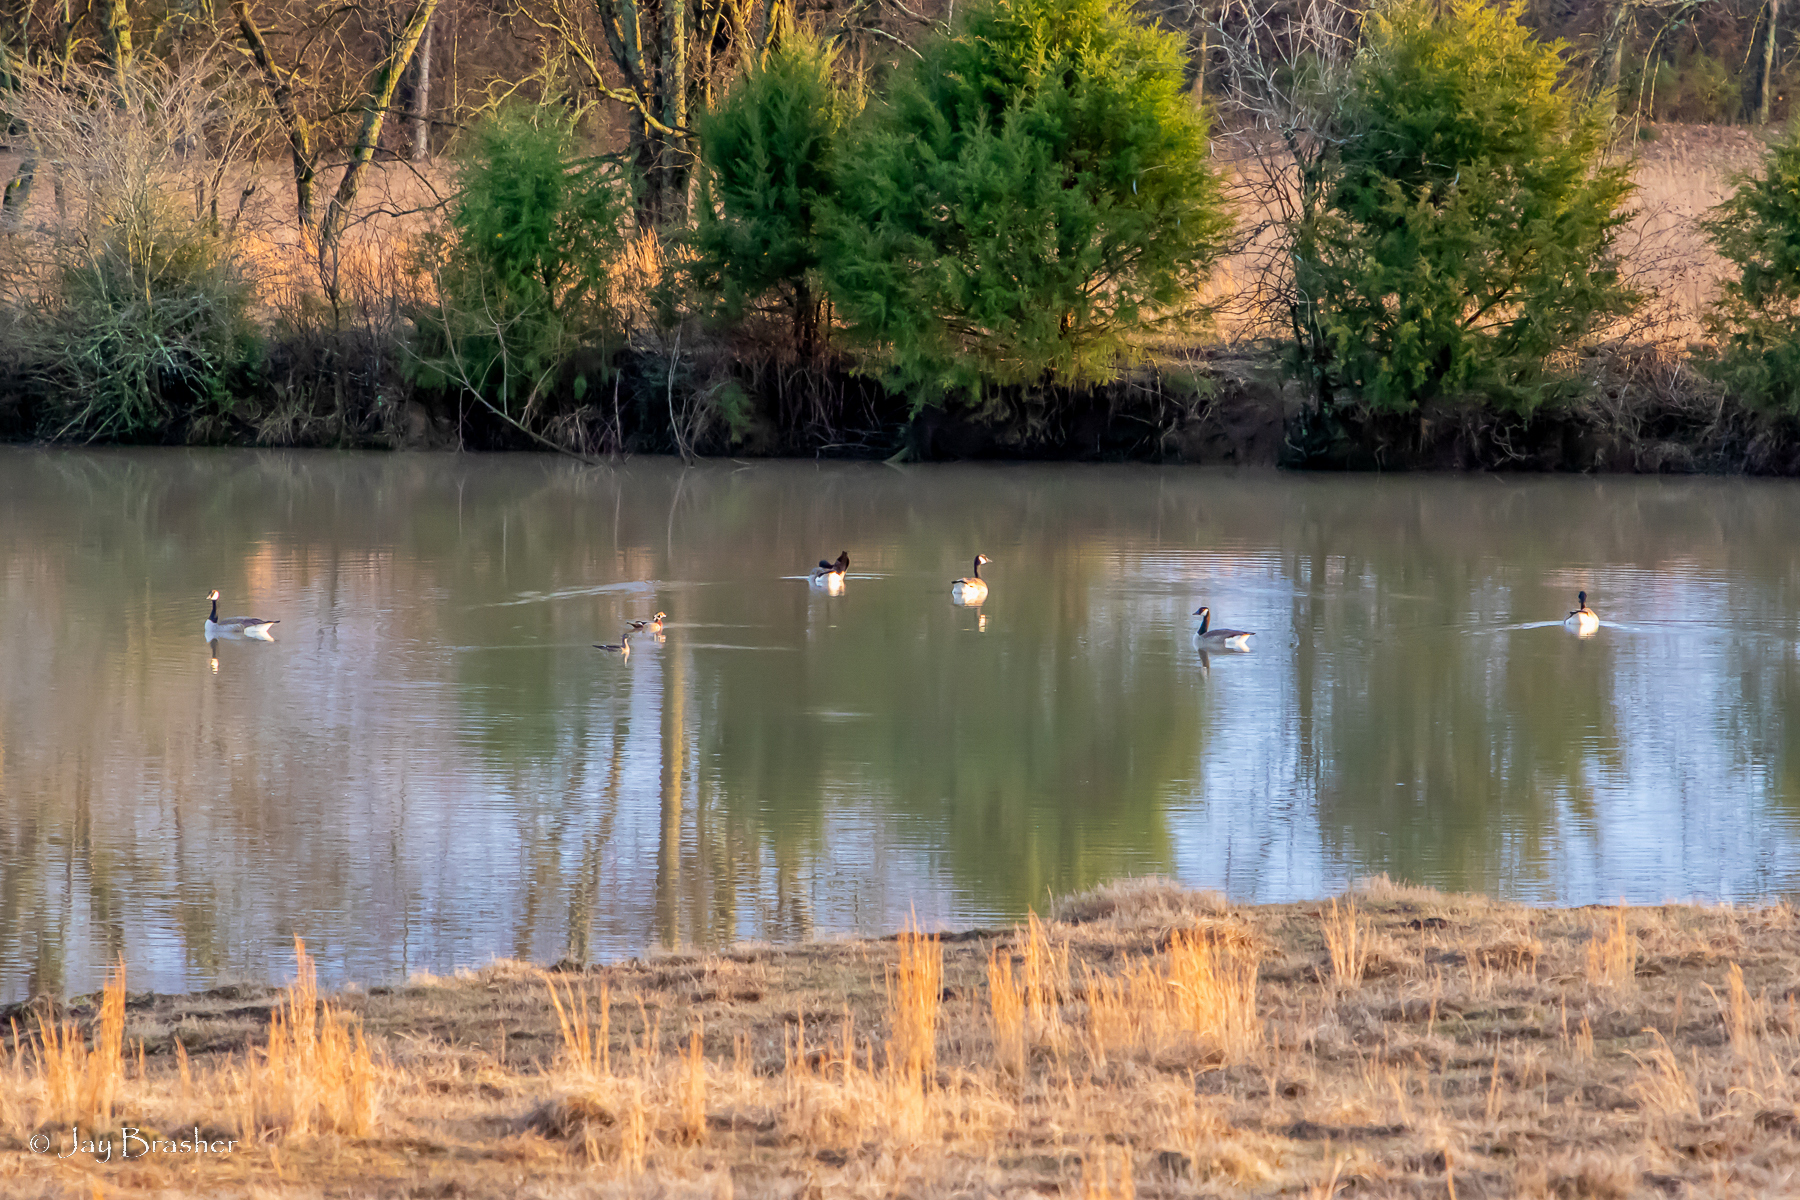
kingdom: Animalia
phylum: Chordata
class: Aves
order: Anseriformes
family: Anatidae
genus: Branta
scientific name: Branta canadensis
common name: Canada goose
